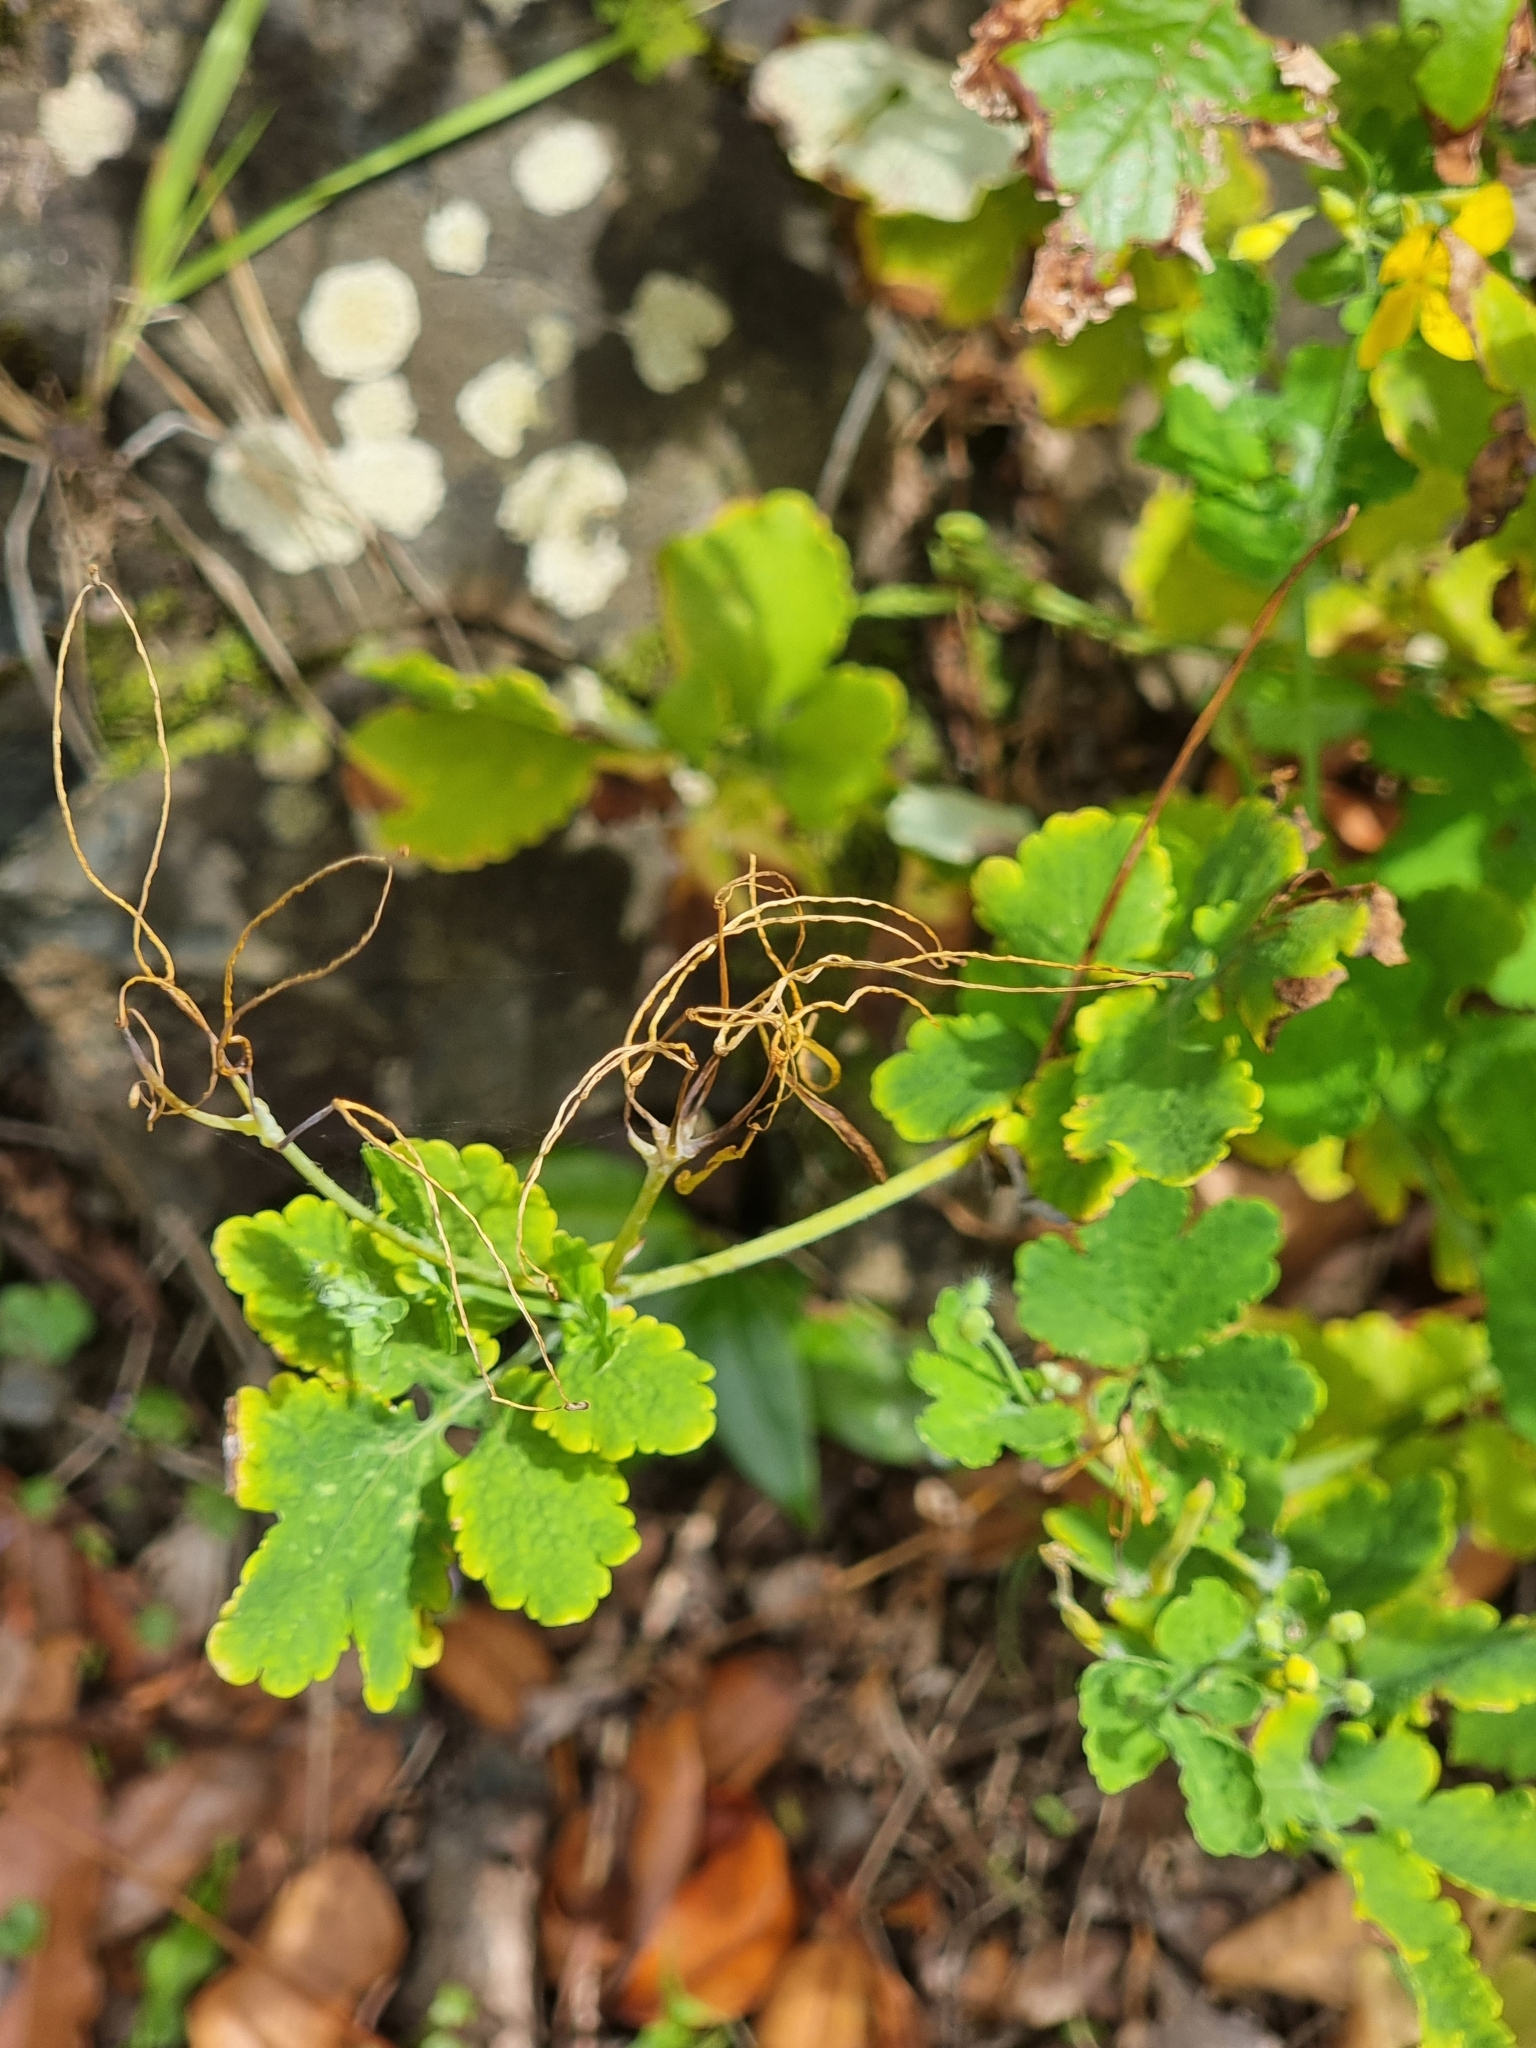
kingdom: Plantae
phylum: Tracheophyta
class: Magnoliopsida
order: Ranunculales
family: Papaveraceae
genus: Chelidonium
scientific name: Chelidonium majus
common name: Greater celandine
